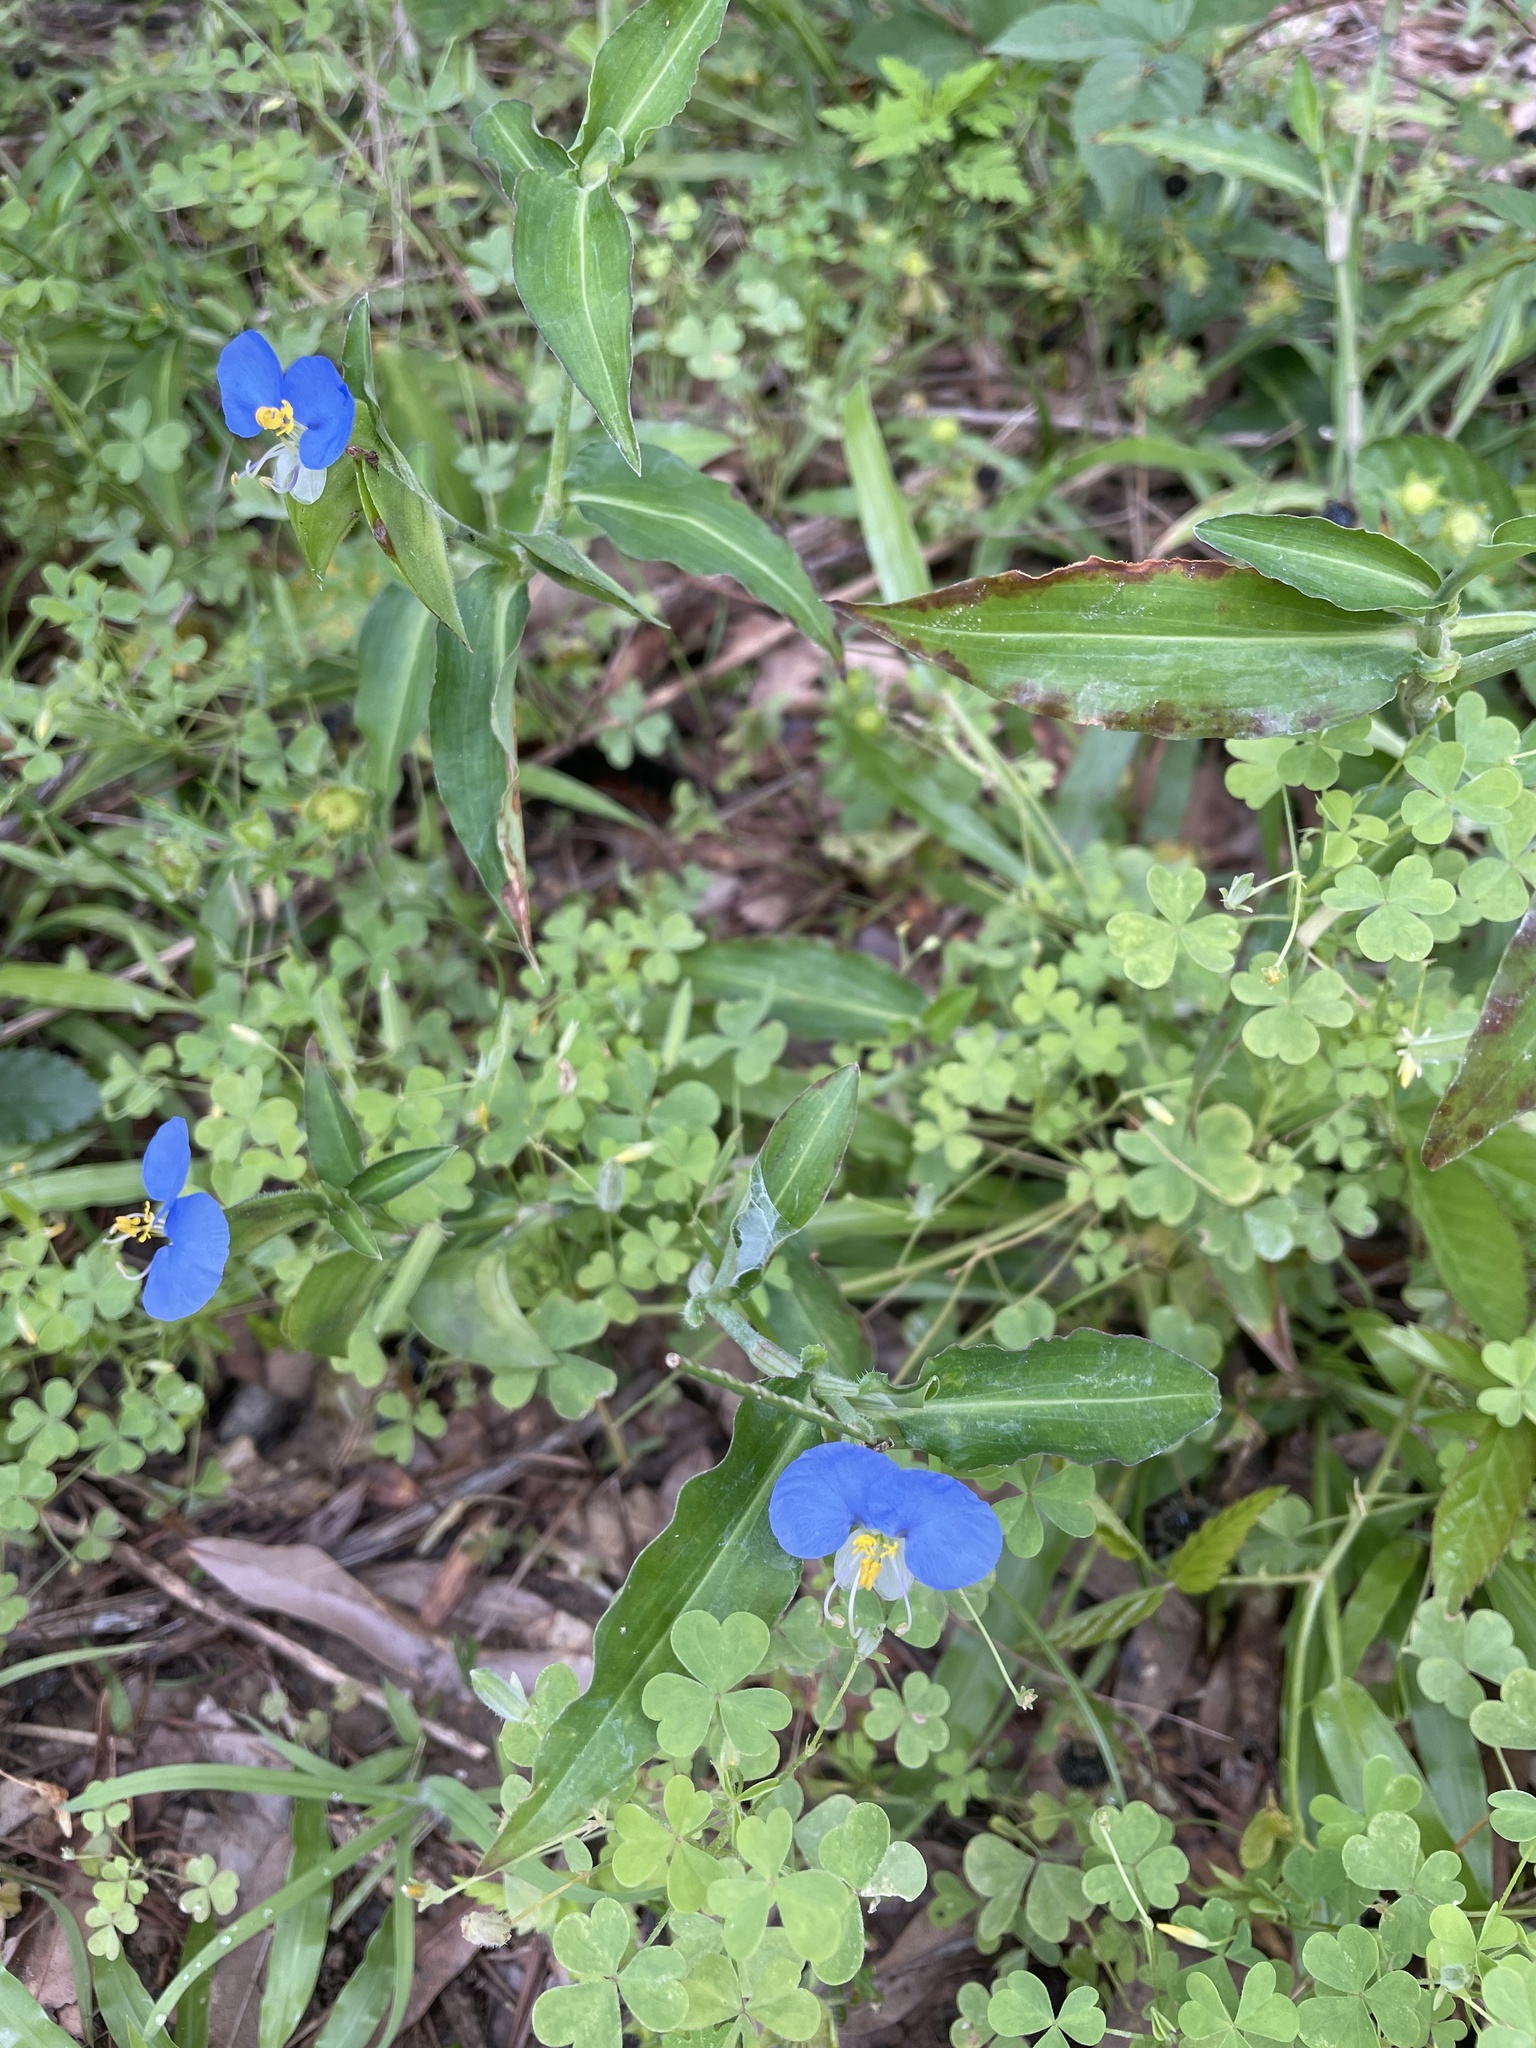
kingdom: Plantae
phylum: Tracheophyta
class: Liliopsida
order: Commelinales
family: Commelinaceae
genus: Commelina
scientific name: Commelina erecta
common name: Blousel blommetjie
